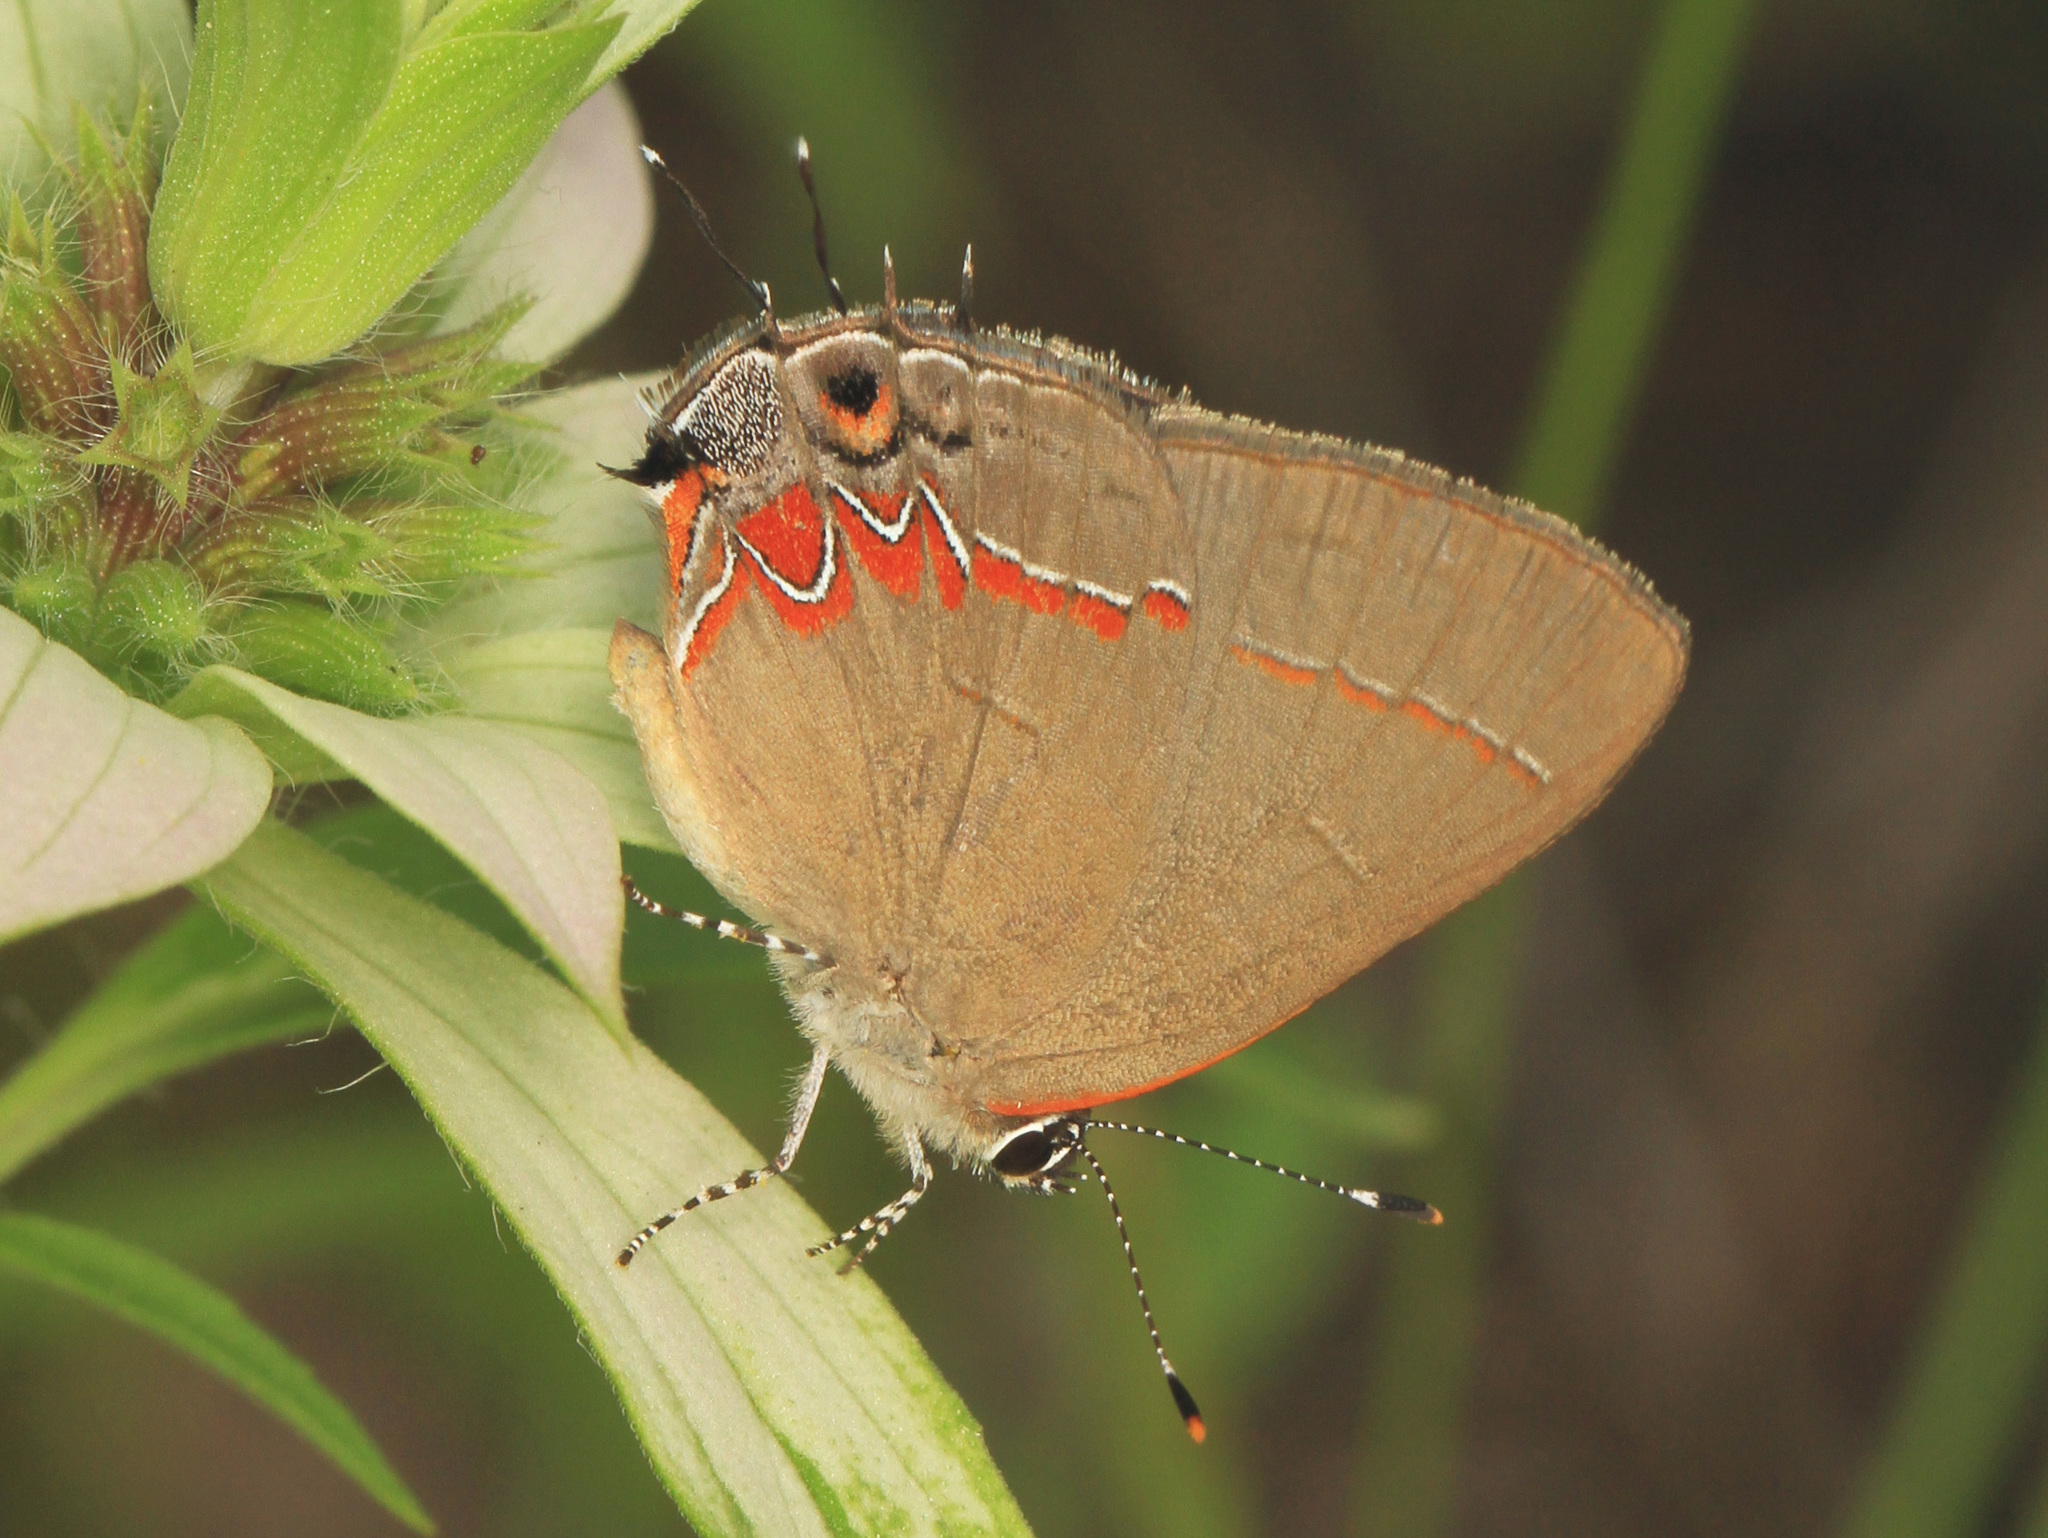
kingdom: Animalia
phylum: Arthropoda
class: Insecta
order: Lepidoptera
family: Lycaenidae
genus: Calycopis
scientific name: Calycopis isobeon
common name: Dusky-blue groundstreak
